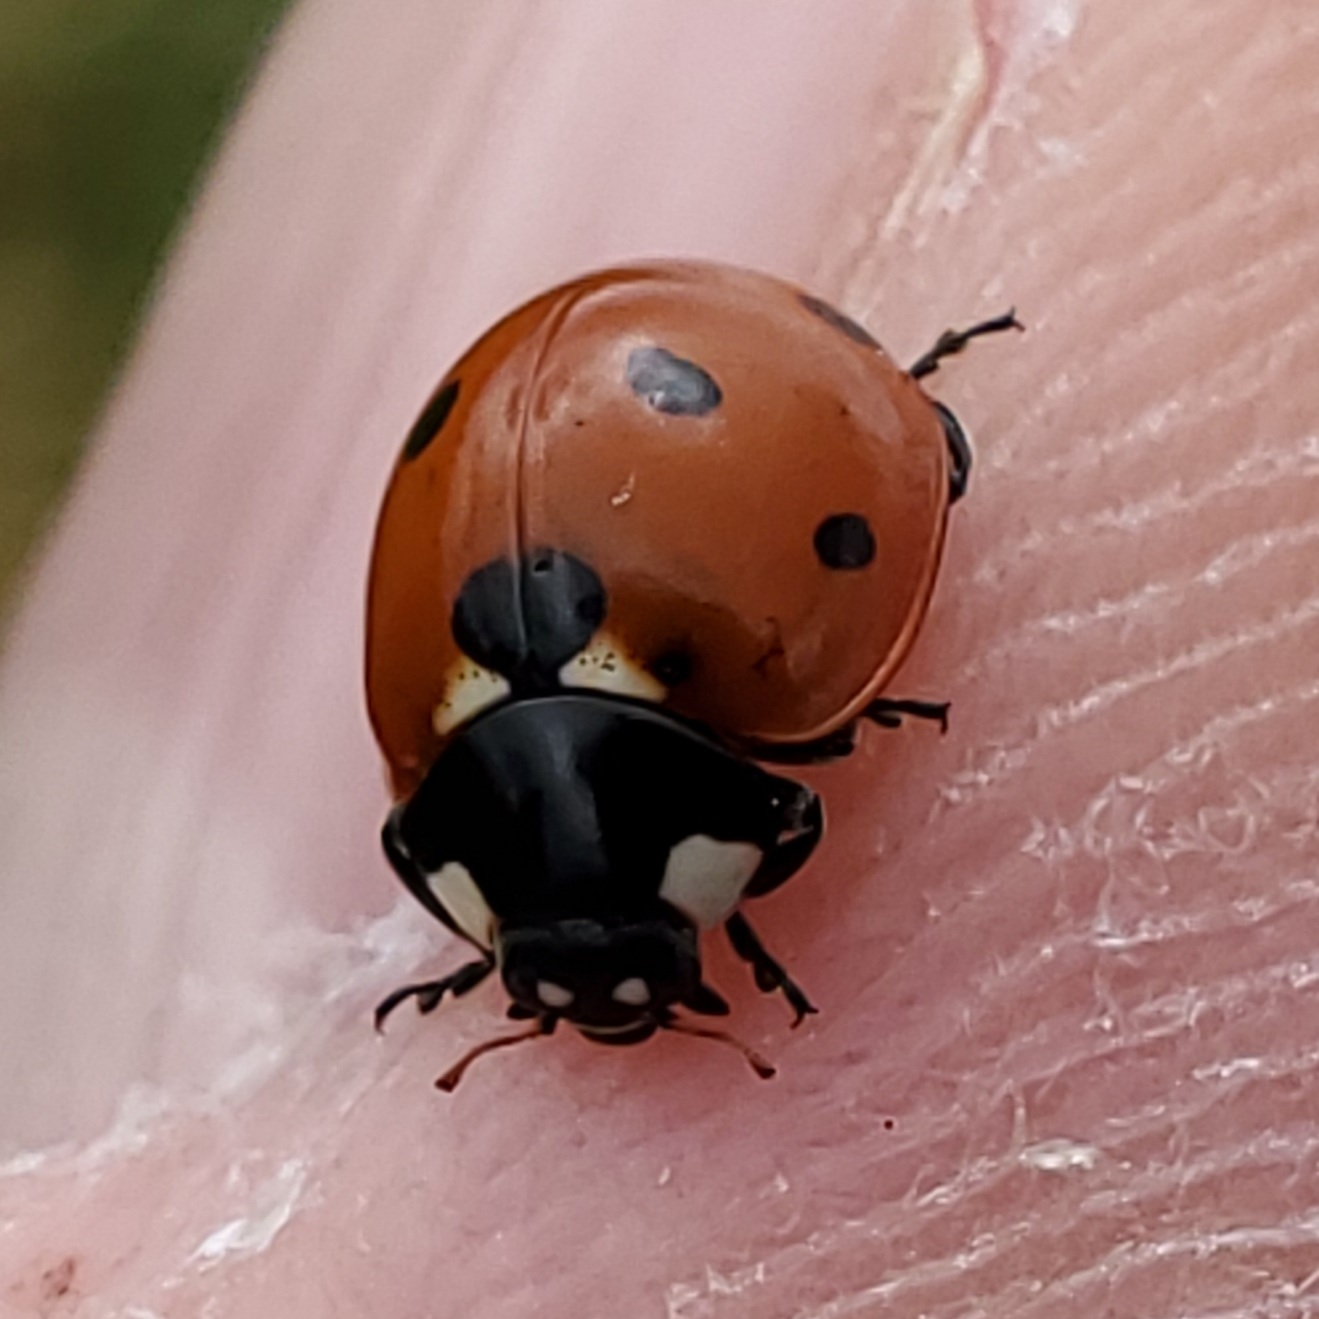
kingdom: Animalia
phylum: Arthropoda
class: Insecta
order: Coleoptera
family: Coccinellidae
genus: Coccinella
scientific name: Coccinella septempunctata
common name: Sevenspotted lady beetle
